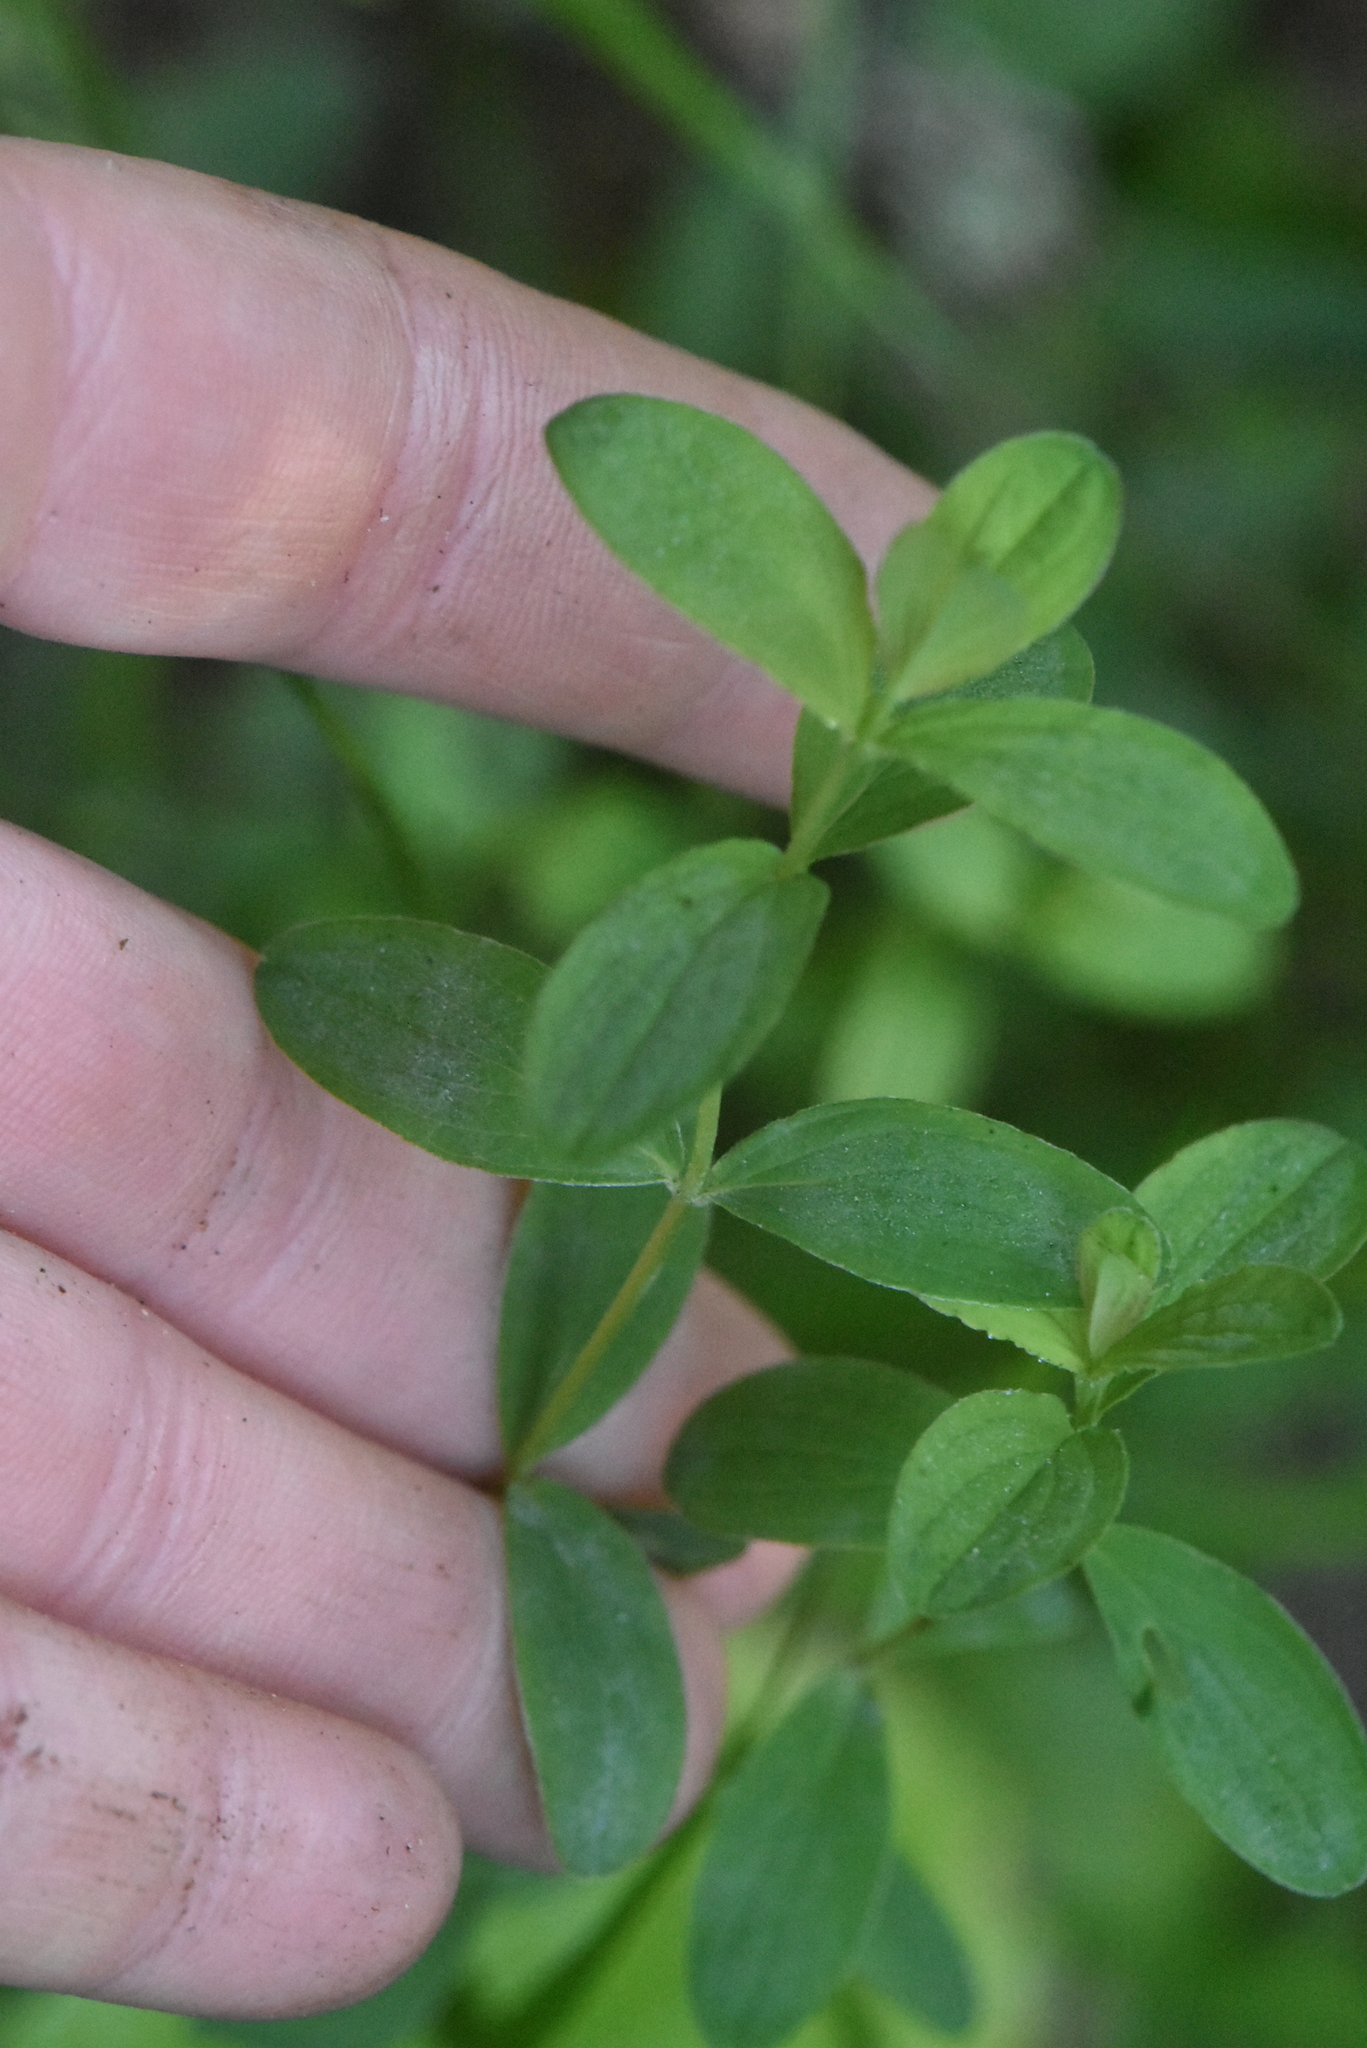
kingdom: Plantae
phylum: Tracheophyta
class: Magnoliopsida
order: Malpighiales
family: Hypericaceae
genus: Hypericum
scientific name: Hypericum maculatum
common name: Imperforate st. john's-wort
